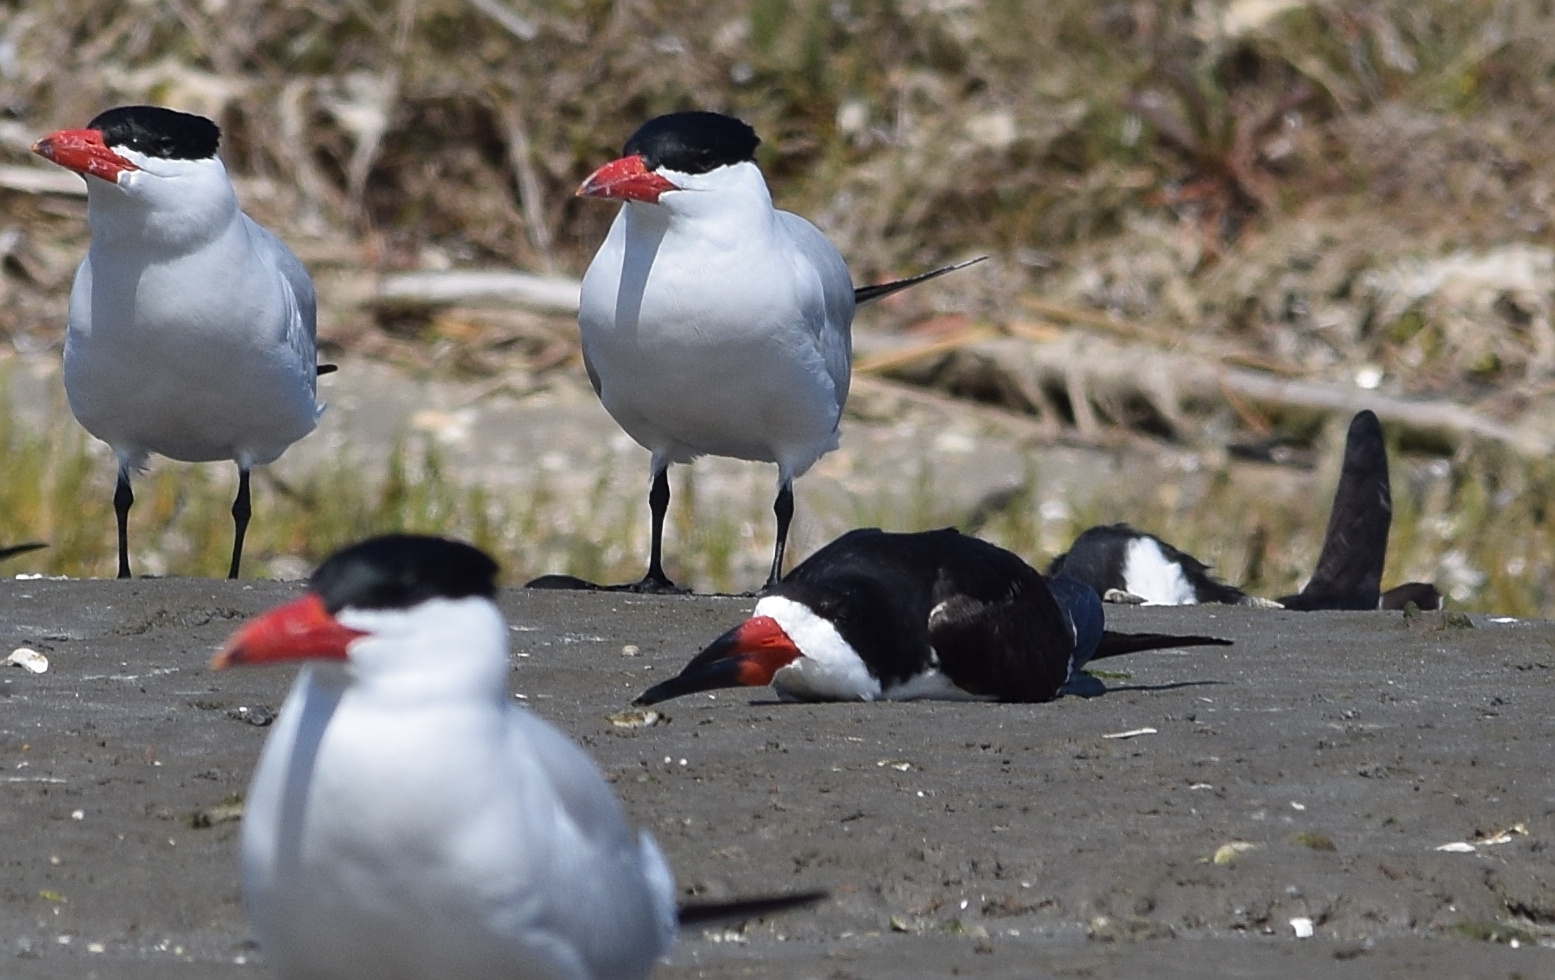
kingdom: Animalia
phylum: Chordata
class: Aves
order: Charadriiformes
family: Laridae
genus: Rynchops
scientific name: Rynchops niger
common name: Black skimmer
